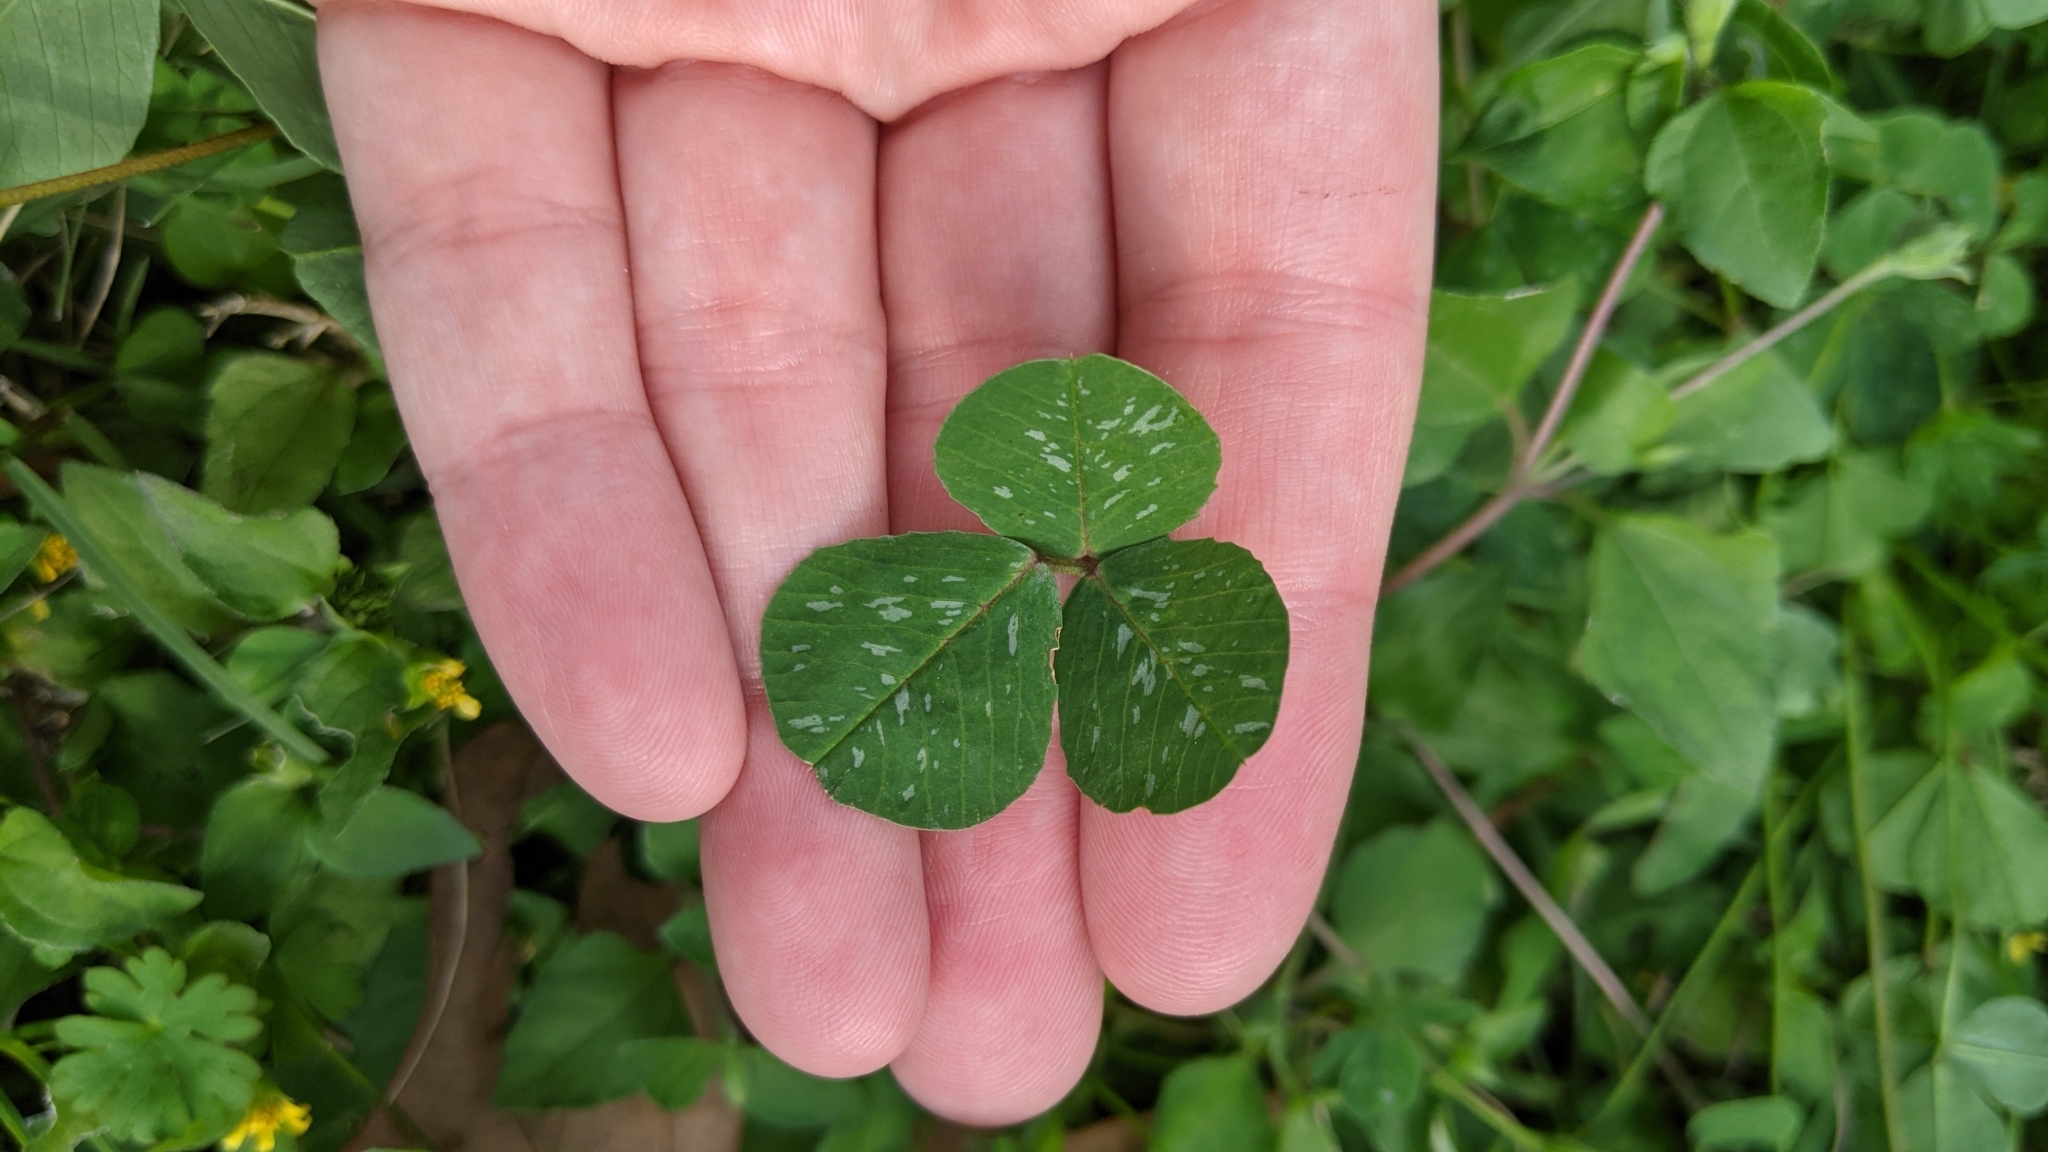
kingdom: Plantae
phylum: Tracheophyta
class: Magnoliopsida
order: Fabales
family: Fabaceae
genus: Medicago
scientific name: Medicago polymorpha
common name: Burclover
